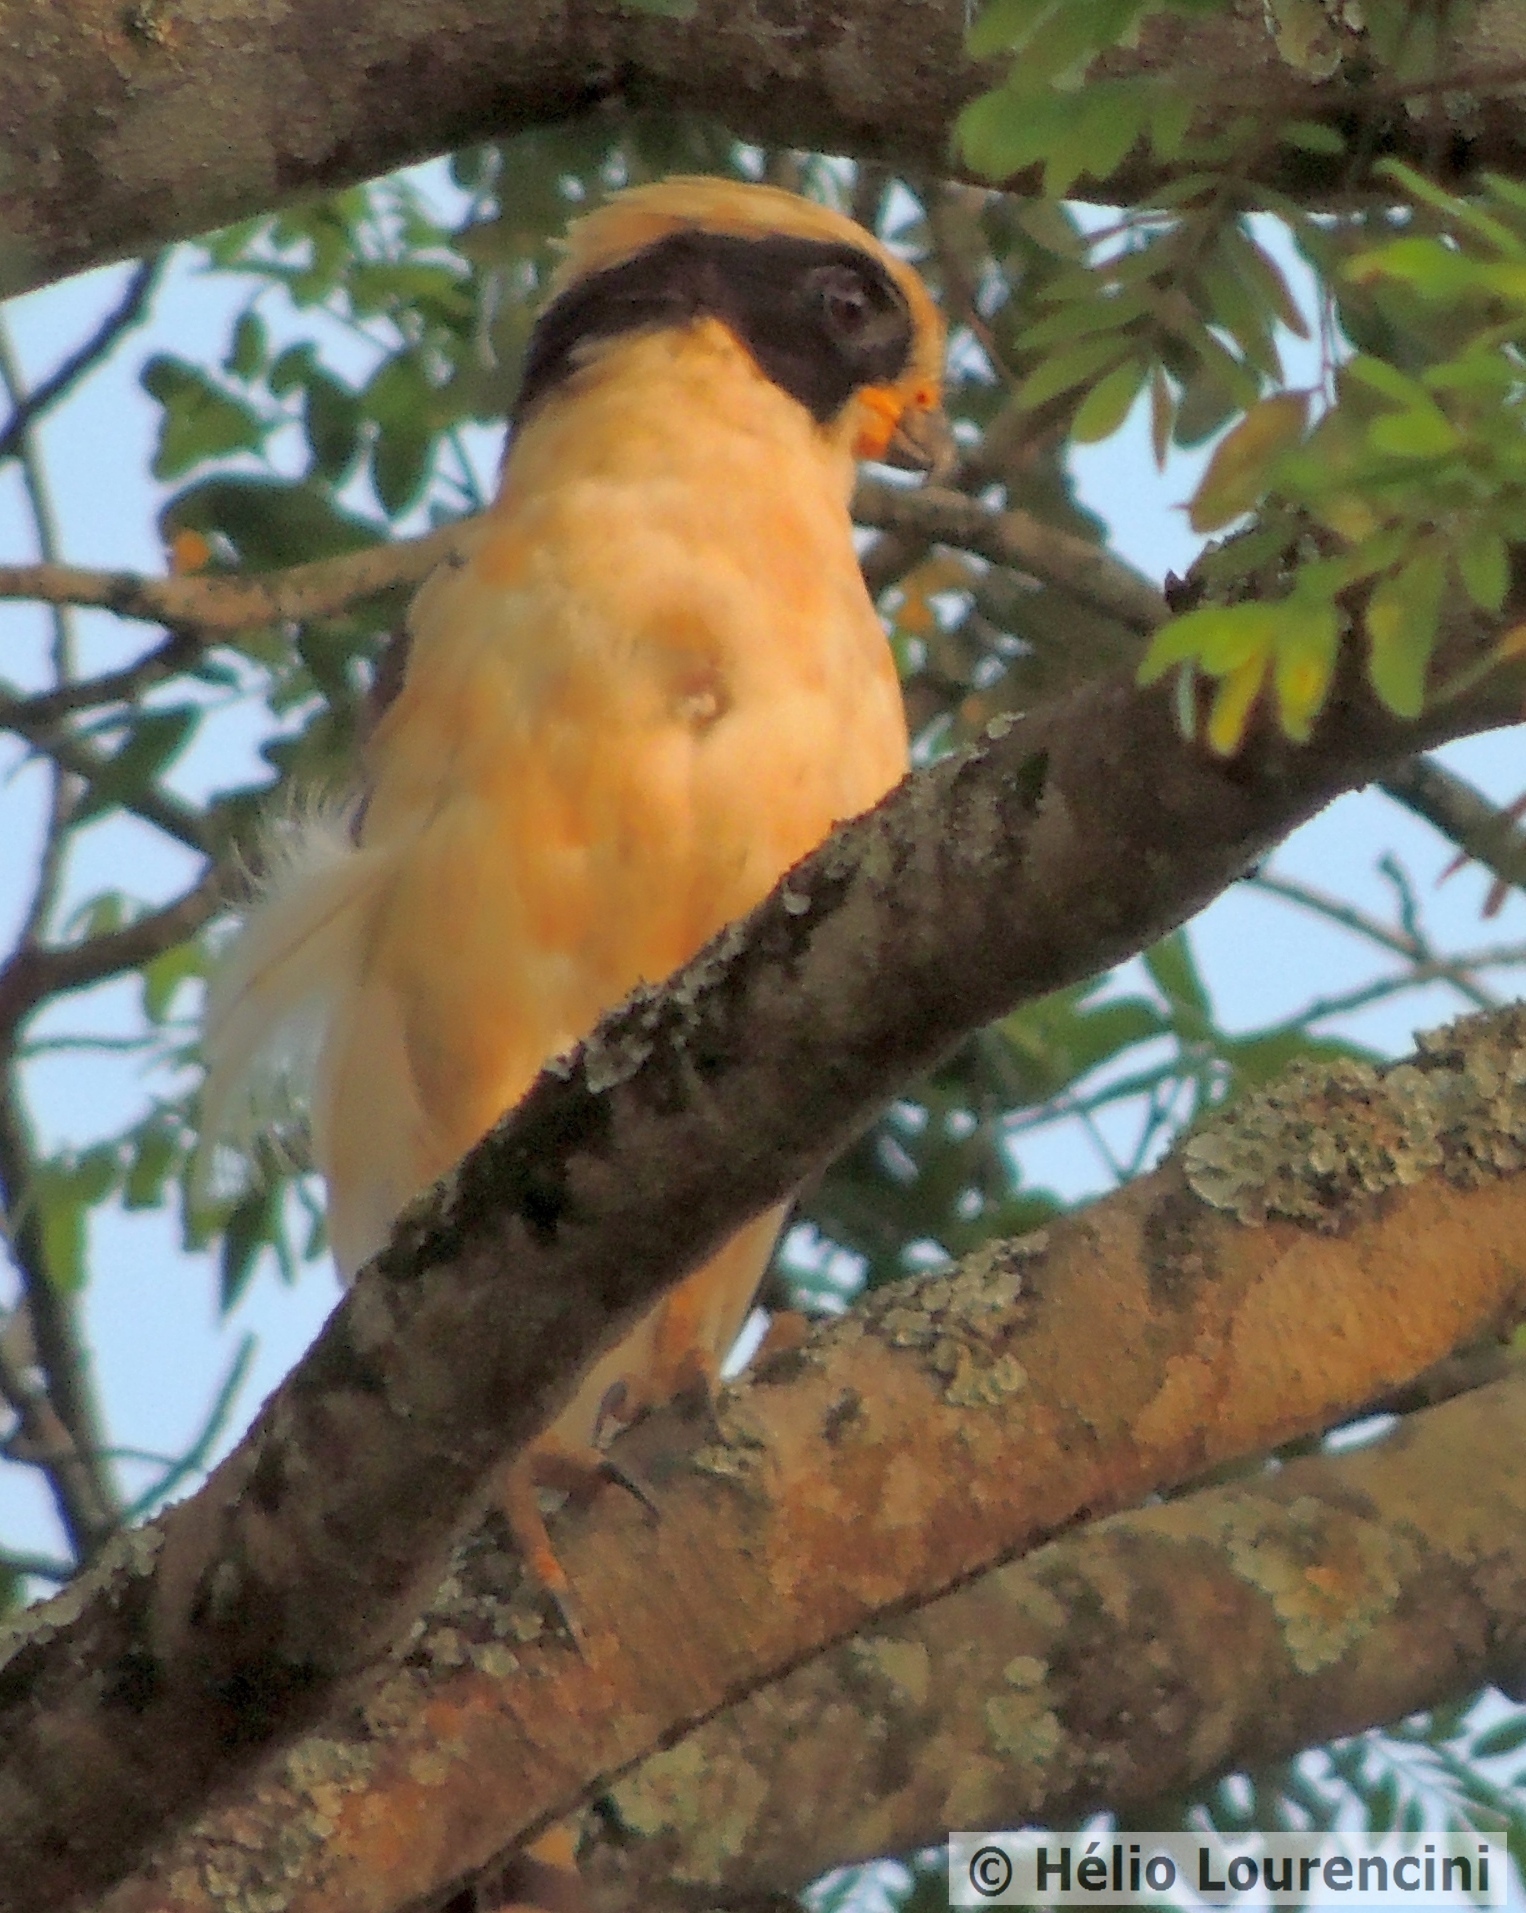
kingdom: Animalia
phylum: Chordata
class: Aves
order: Falconiformes
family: Falconidae
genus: Herpetotheres
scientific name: Herpetotheres cachinnans
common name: Laughing falcon
